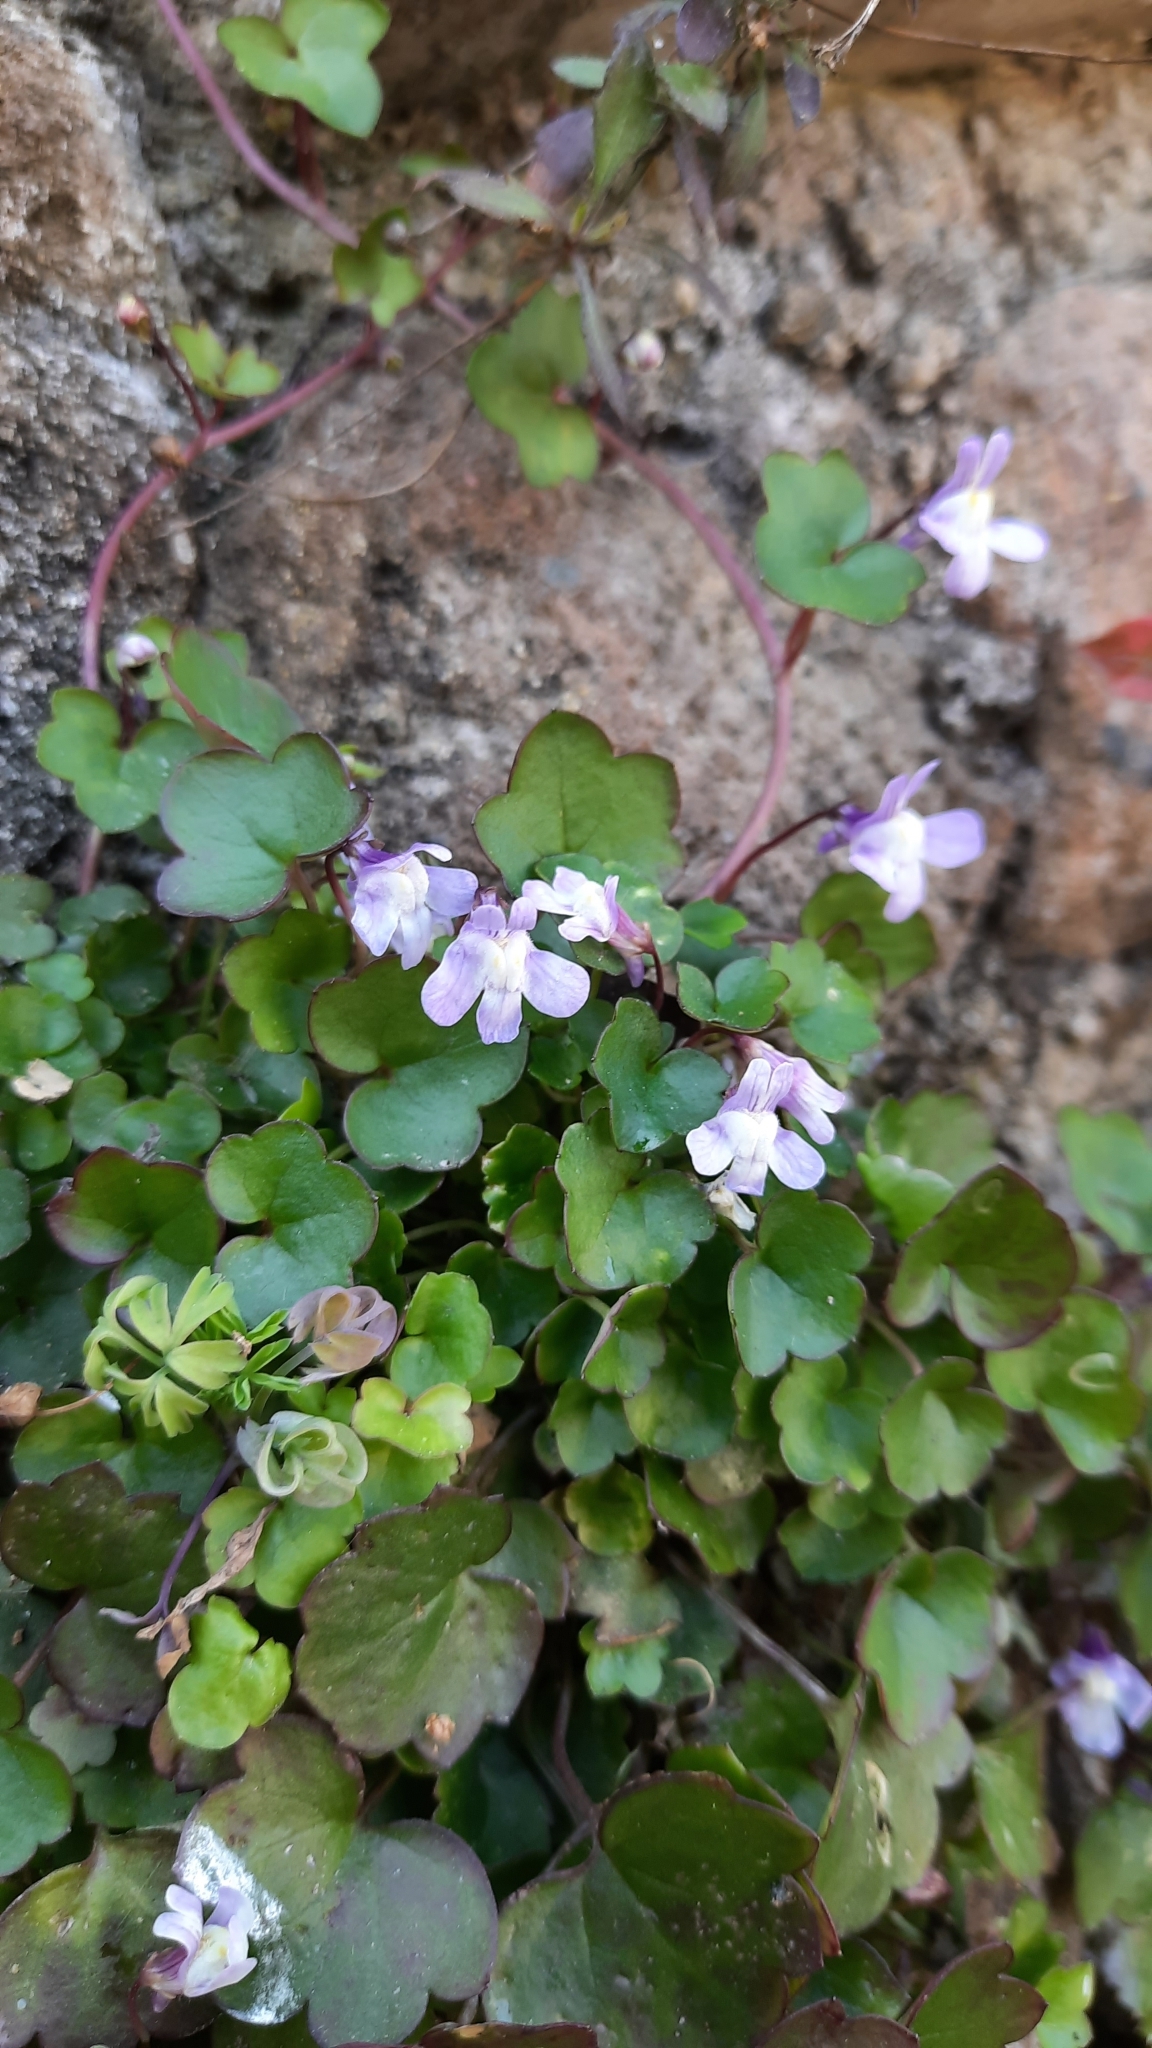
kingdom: Plantae
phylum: Tracheophyta
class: Magnoliopsida
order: Lamiales
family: Plantaginaceae
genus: Cymbalaria
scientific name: Cymbalaria muralis
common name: Ivy-leaved toadflax
